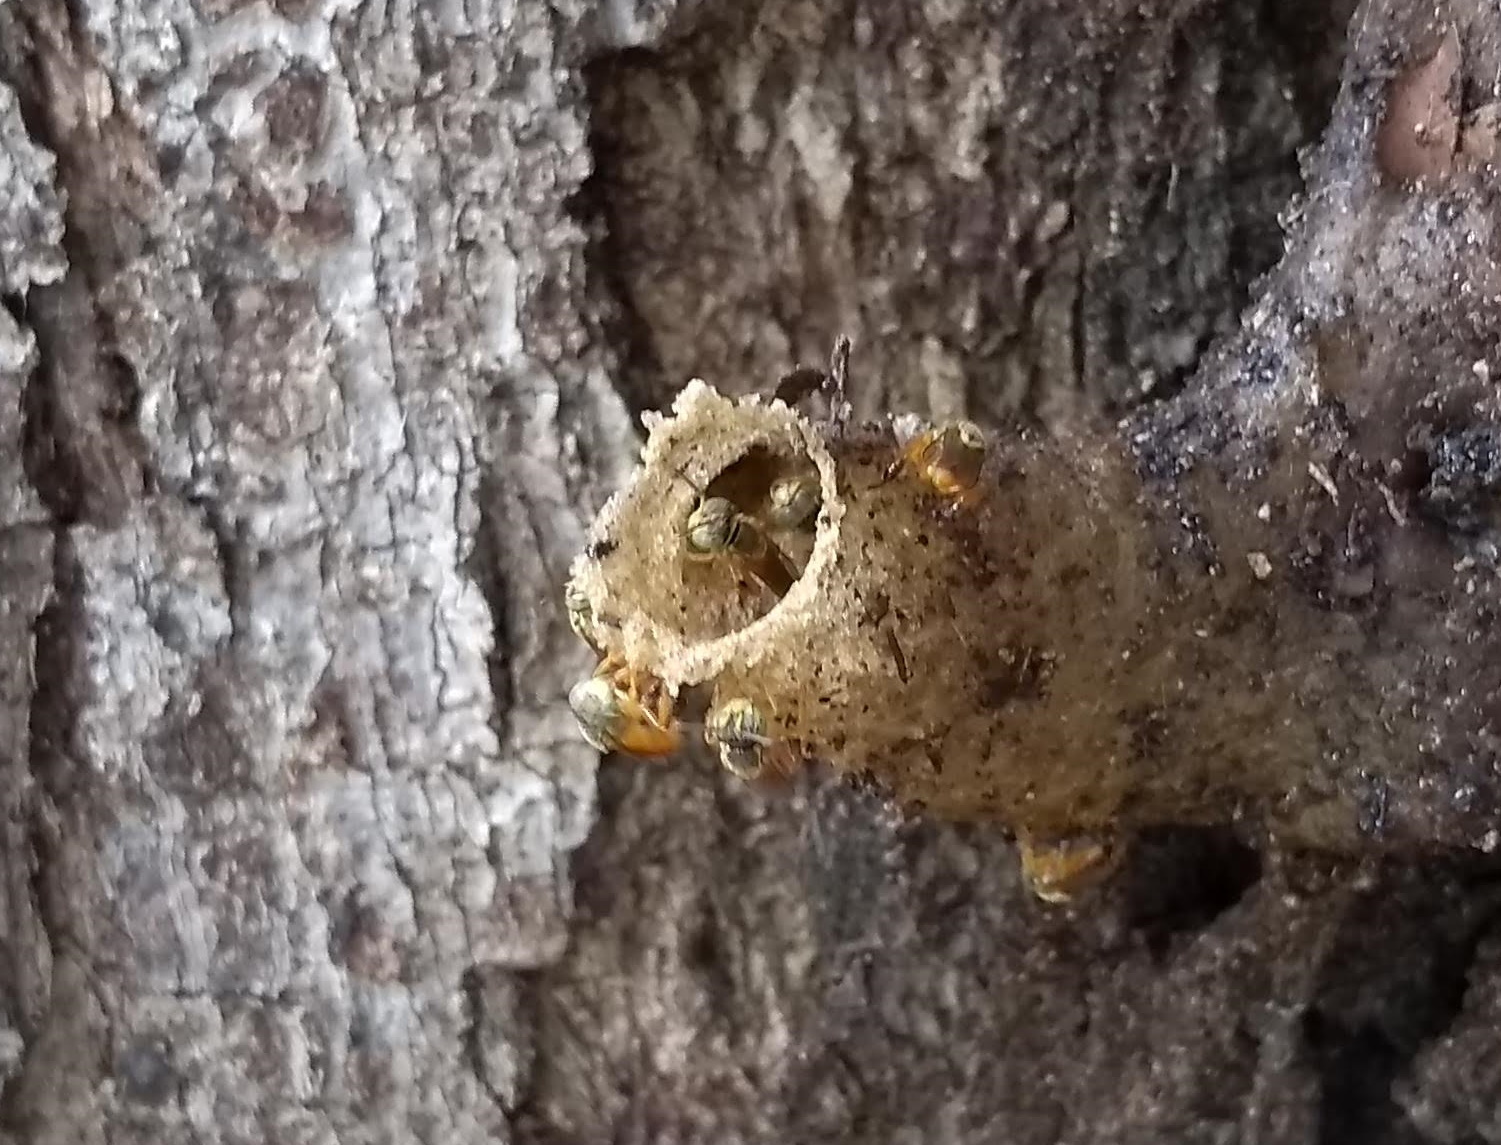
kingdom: Animalia
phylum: Arthropoda
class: Insecta
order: Hymenoptera
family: Apidae
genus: Tetragonisca
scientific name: Tetragonisca angustula
